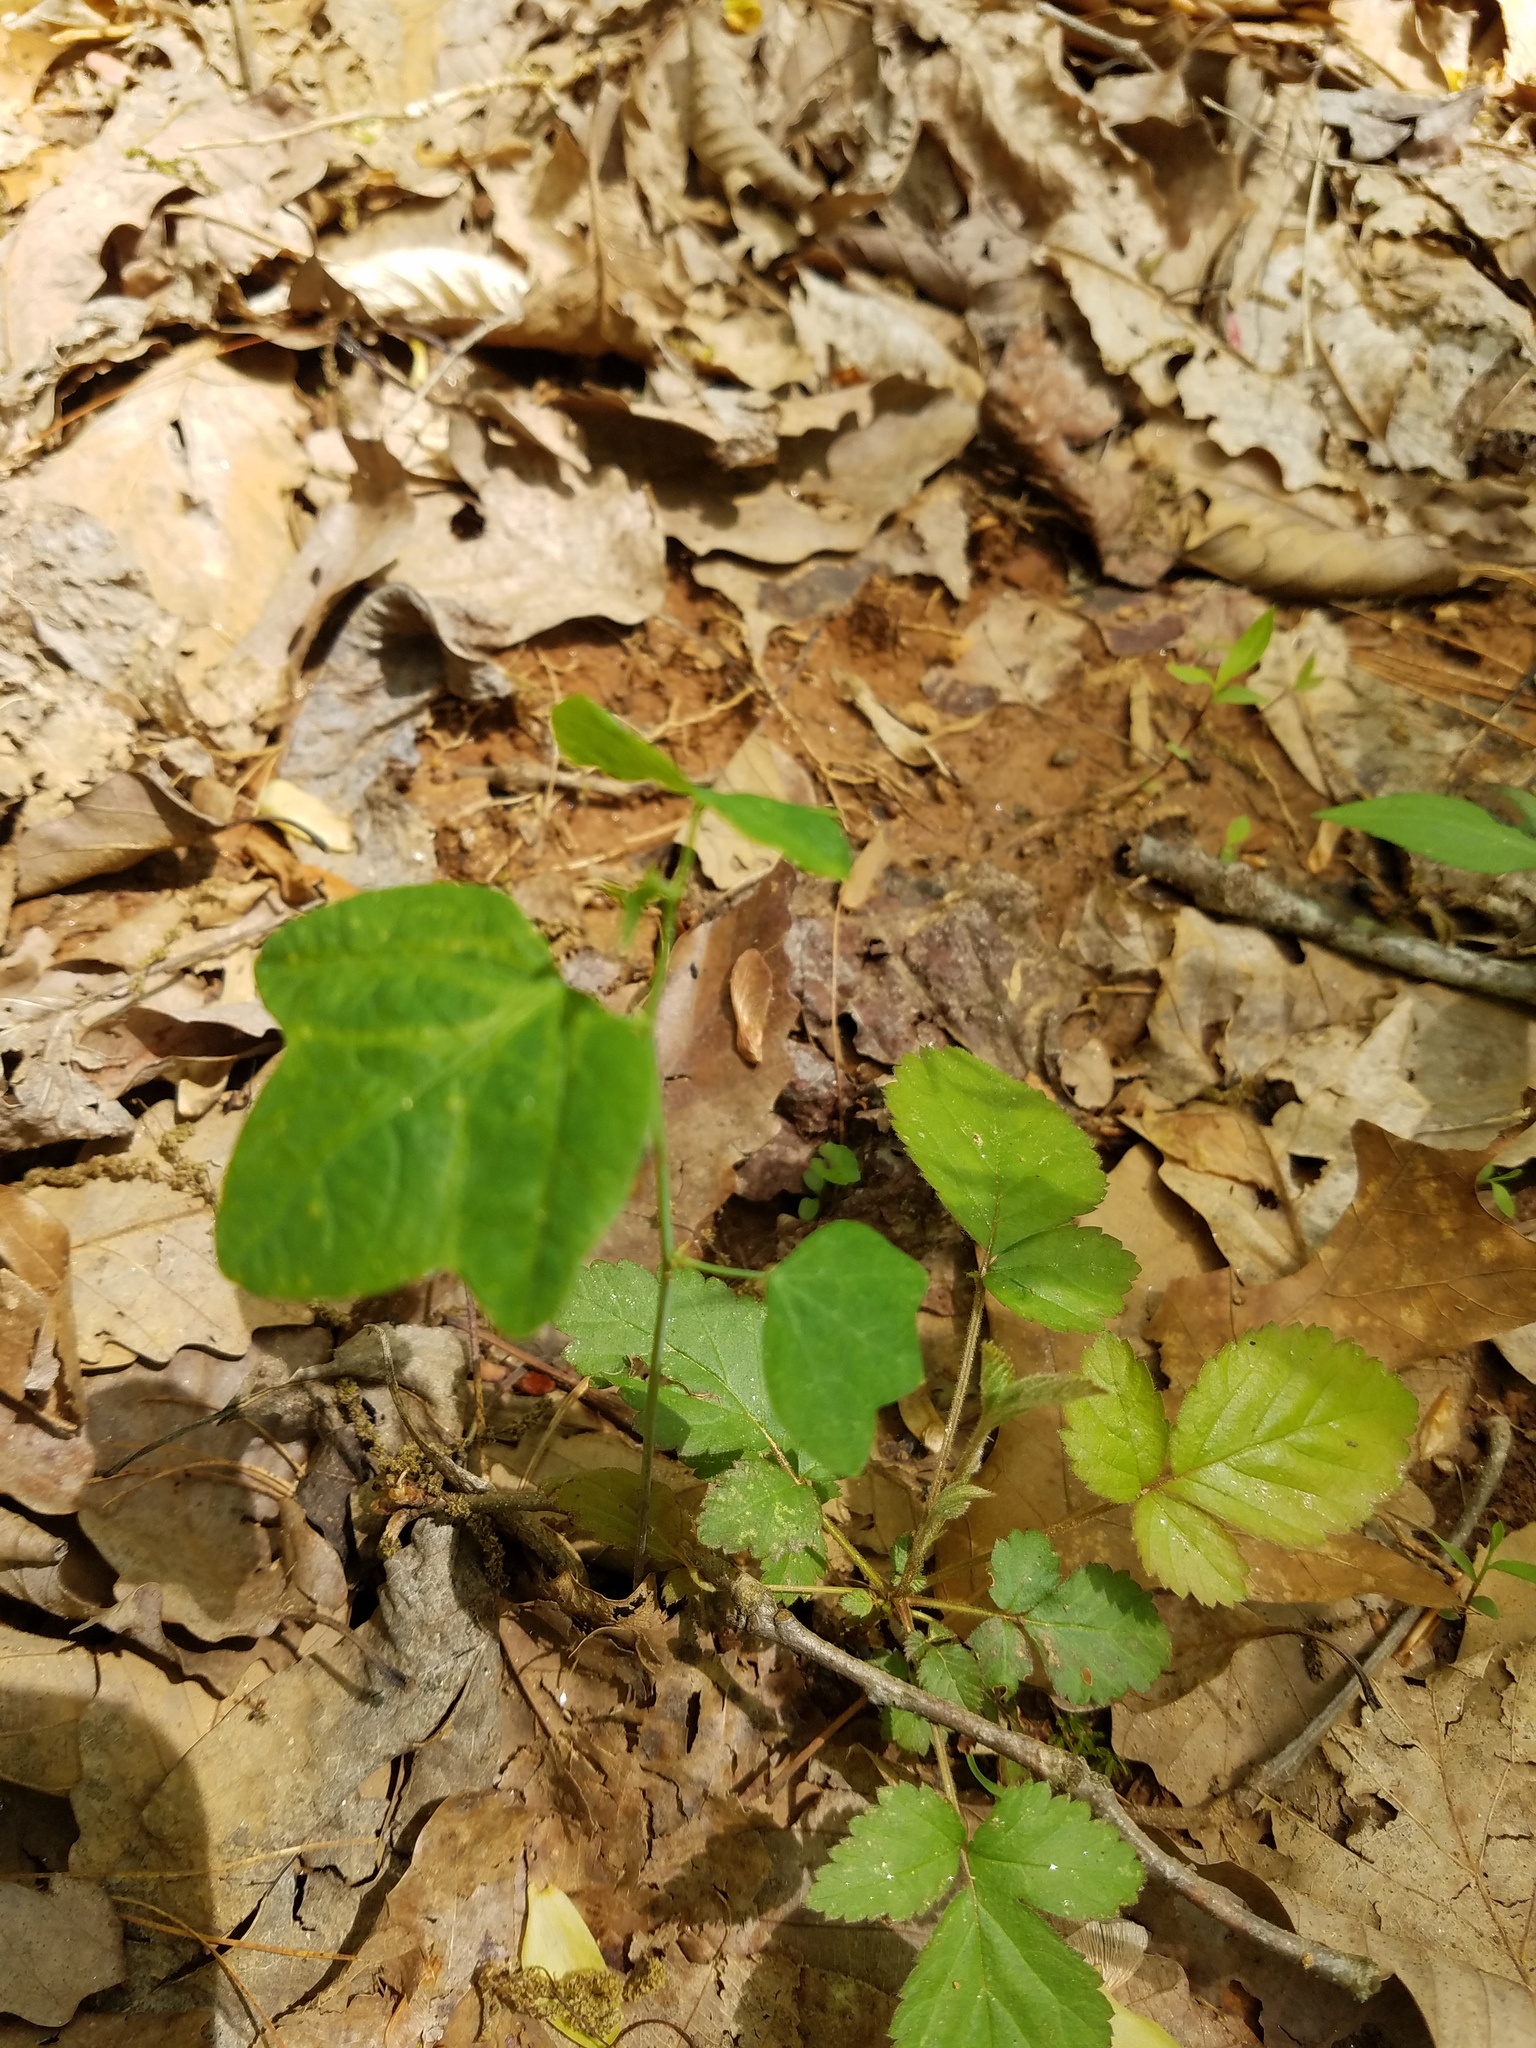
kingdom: Plantae
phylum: Tracheophyta
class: Magnoliopsida
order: Malpighiales
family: Passifloraceae
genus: Passiflora
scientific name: Passiflora lutea
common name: Yellow passionflower
